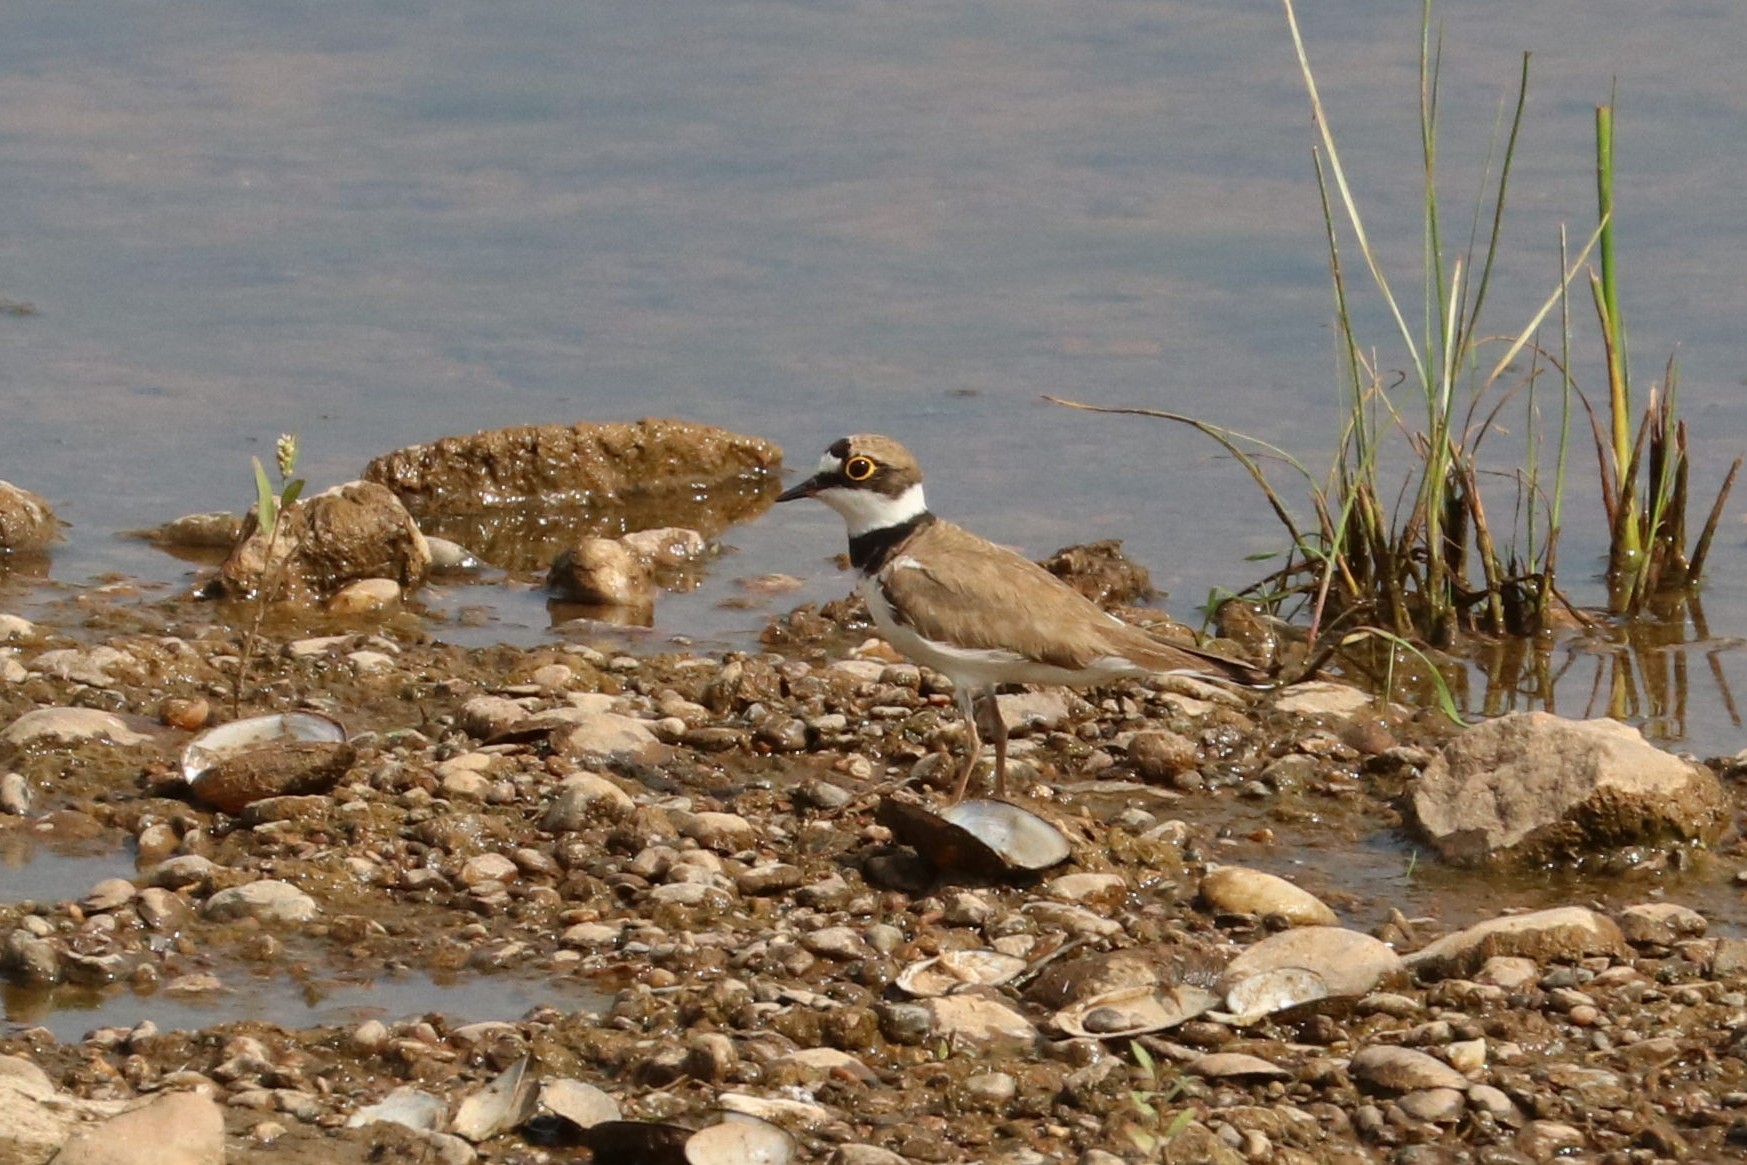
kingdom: Animalia
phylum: Chordata
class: Aves
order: Charadriiformes
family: Charadriidae
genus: Charadrius
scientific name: Charadrius dubius
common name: Little ringed plover
